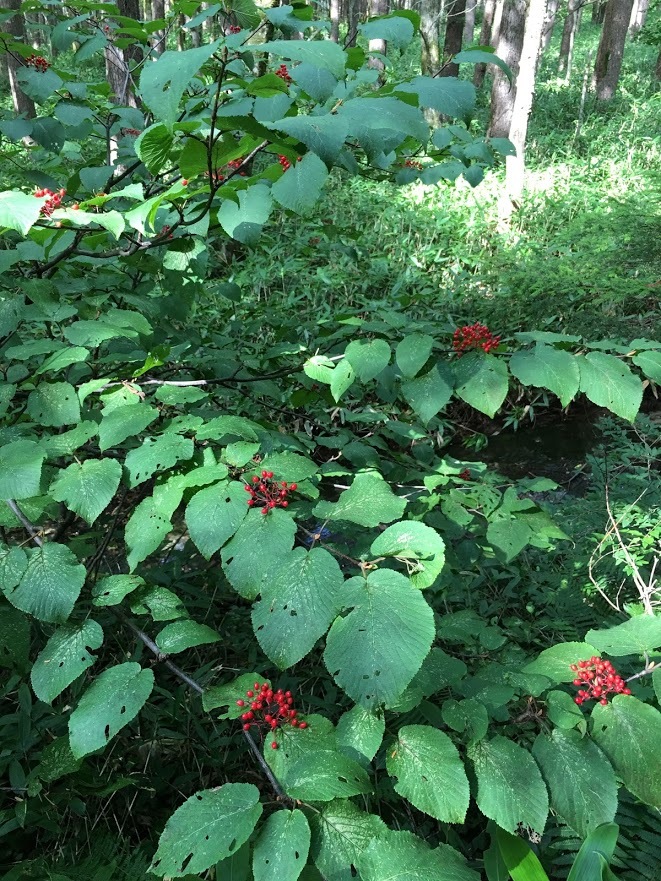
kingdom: Plantae
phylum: Tracheophyta
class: Magnoliopsida
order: Dipsacales
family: Viburnaceae
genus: Viburnum
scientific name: Viburnum plicatum
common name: Japanese snowball
